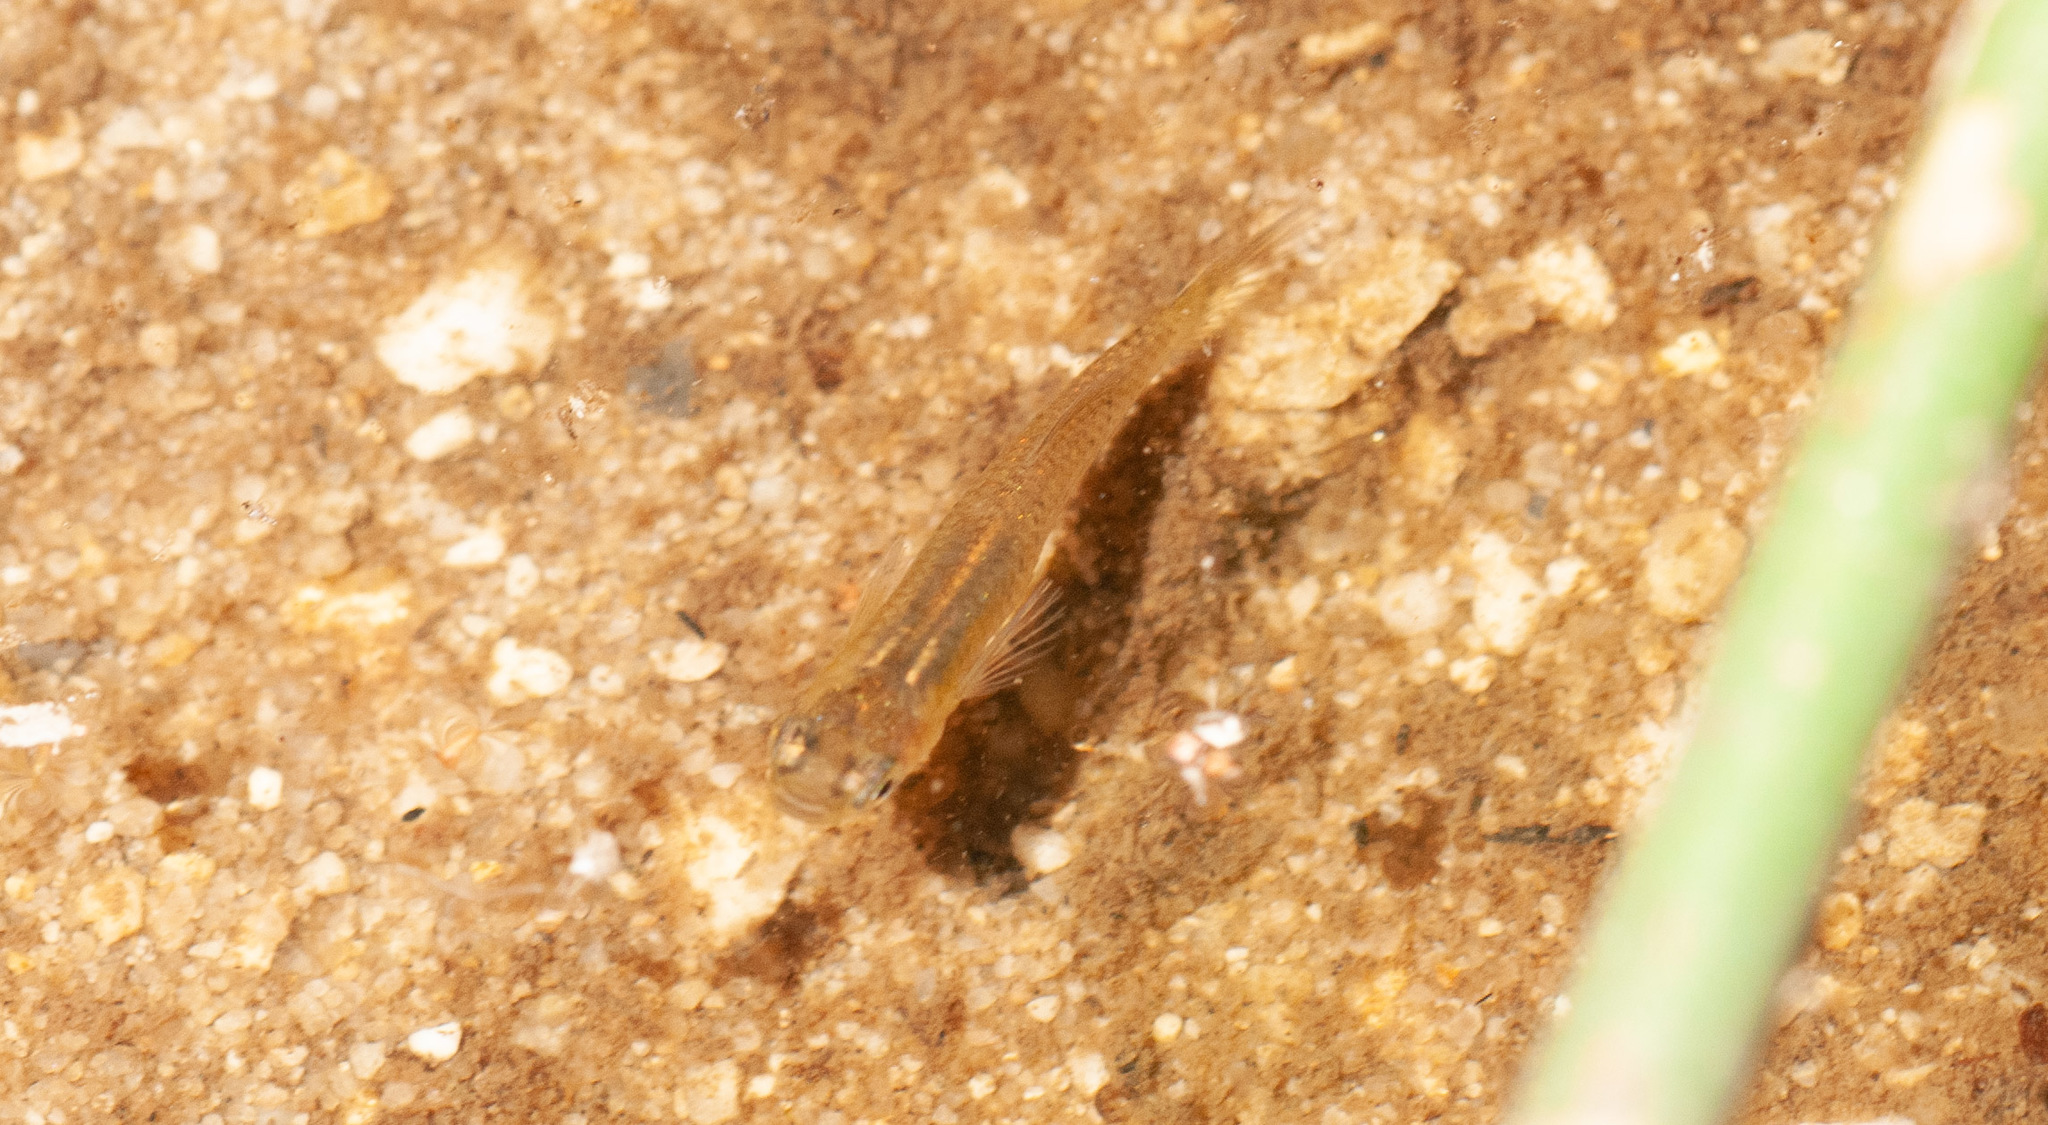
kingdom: Animalia
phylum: Chordata
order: Cyprinodontiformes
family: Poeciliidae
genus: Gambusia
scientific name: Gambusia holbrooki
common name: Eastern mosquitofish
